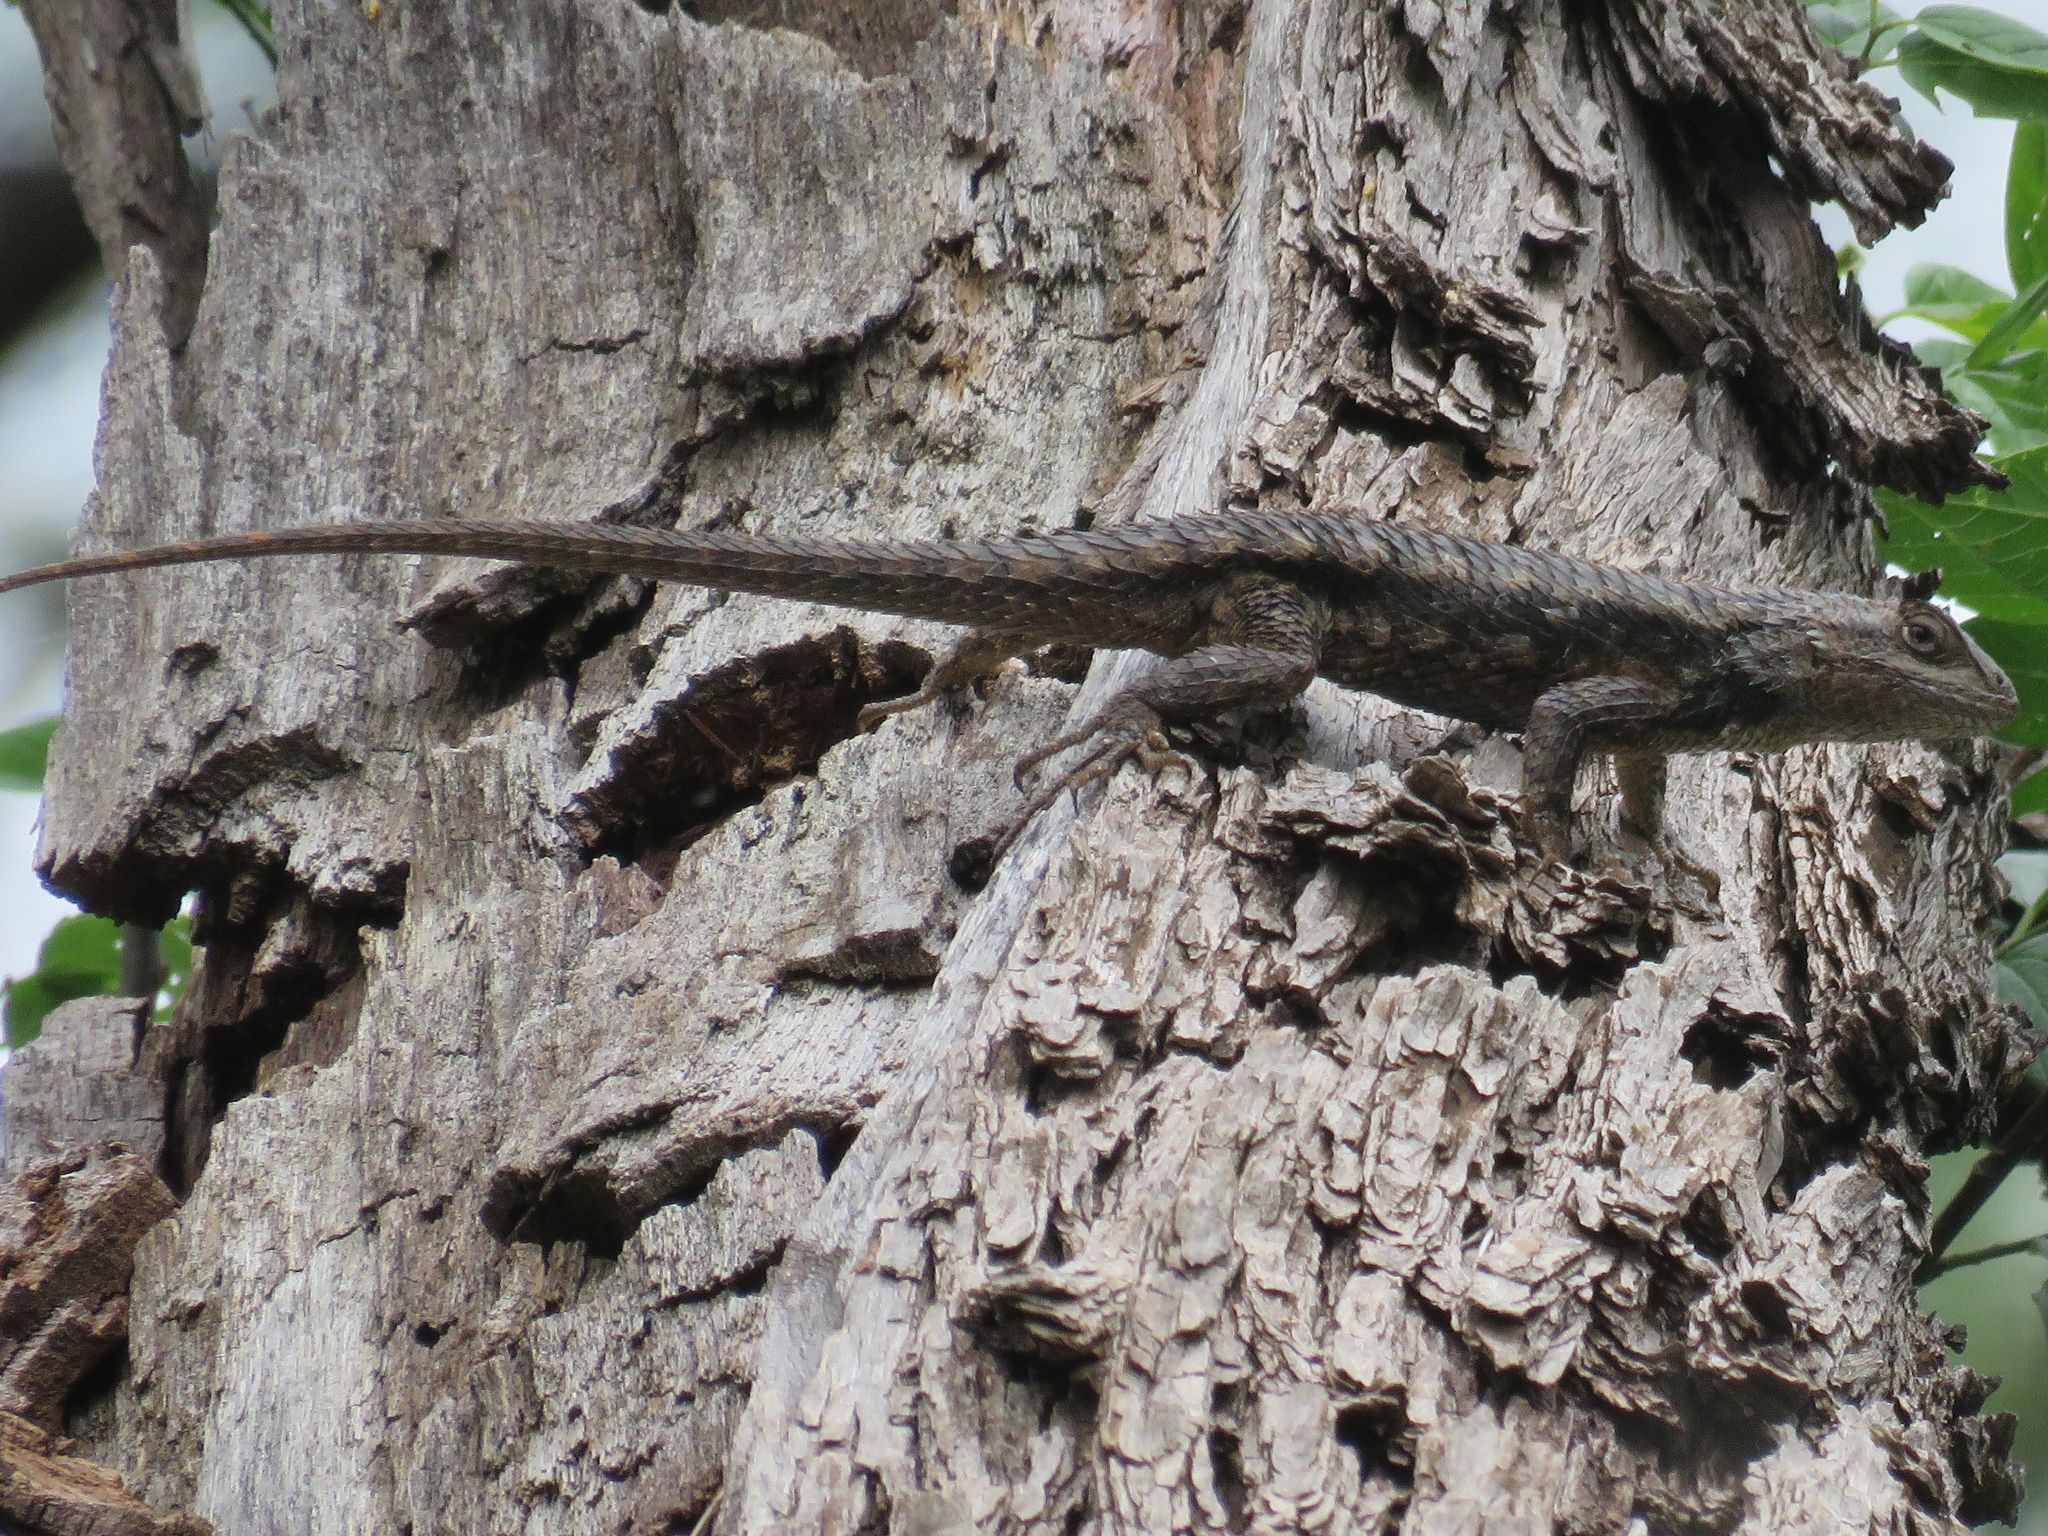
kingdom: Animalia
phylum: Chordata
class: Squamata
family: Phrynosomatidae
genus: Sceloporus
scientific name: Sceloporus olivaceus
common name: Texas spiny lizard
